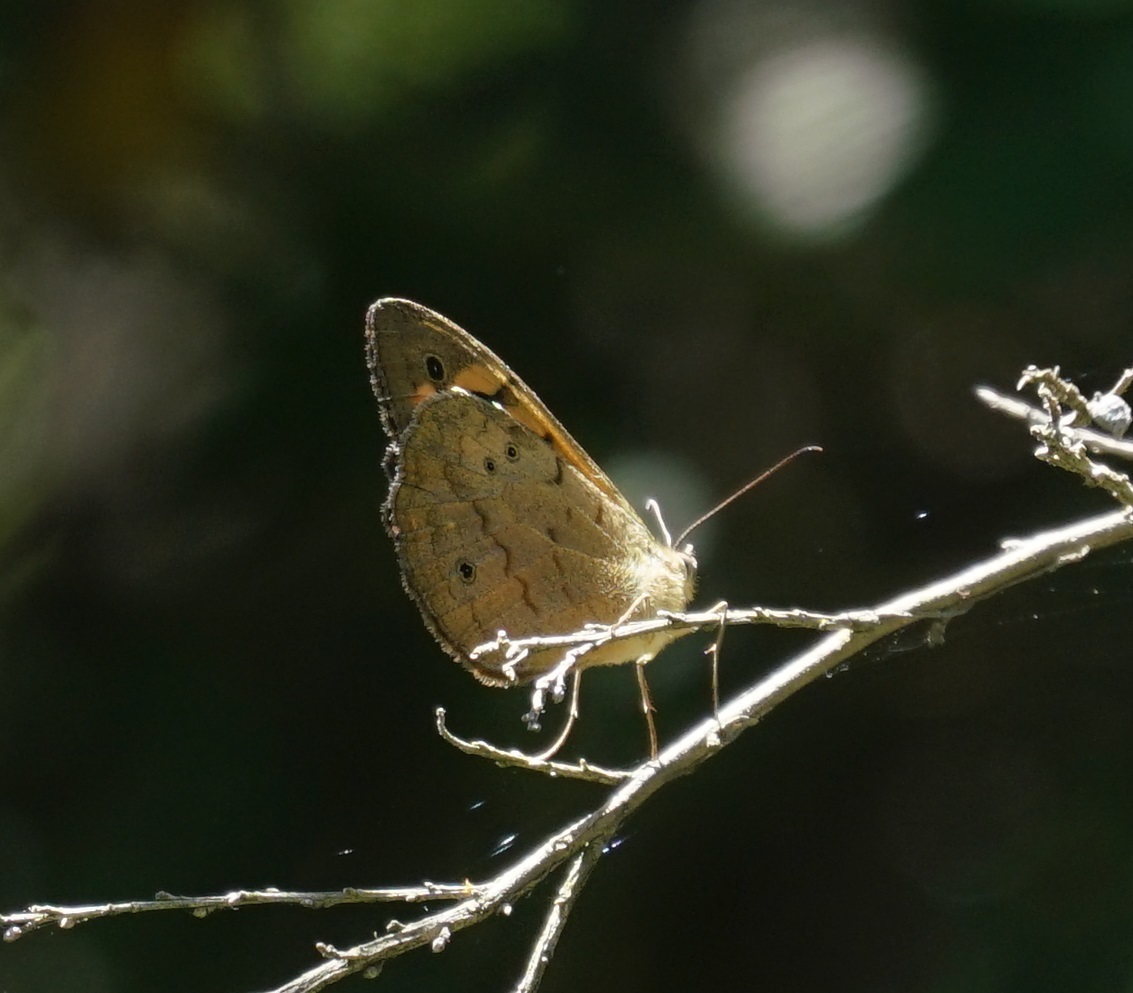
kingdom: Animalia
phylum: Arthropoda
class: Insecta
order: Lepidoptera
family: Nymphalidae
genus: Heteronympha
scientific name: Heteronympha merope
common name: Common brown
